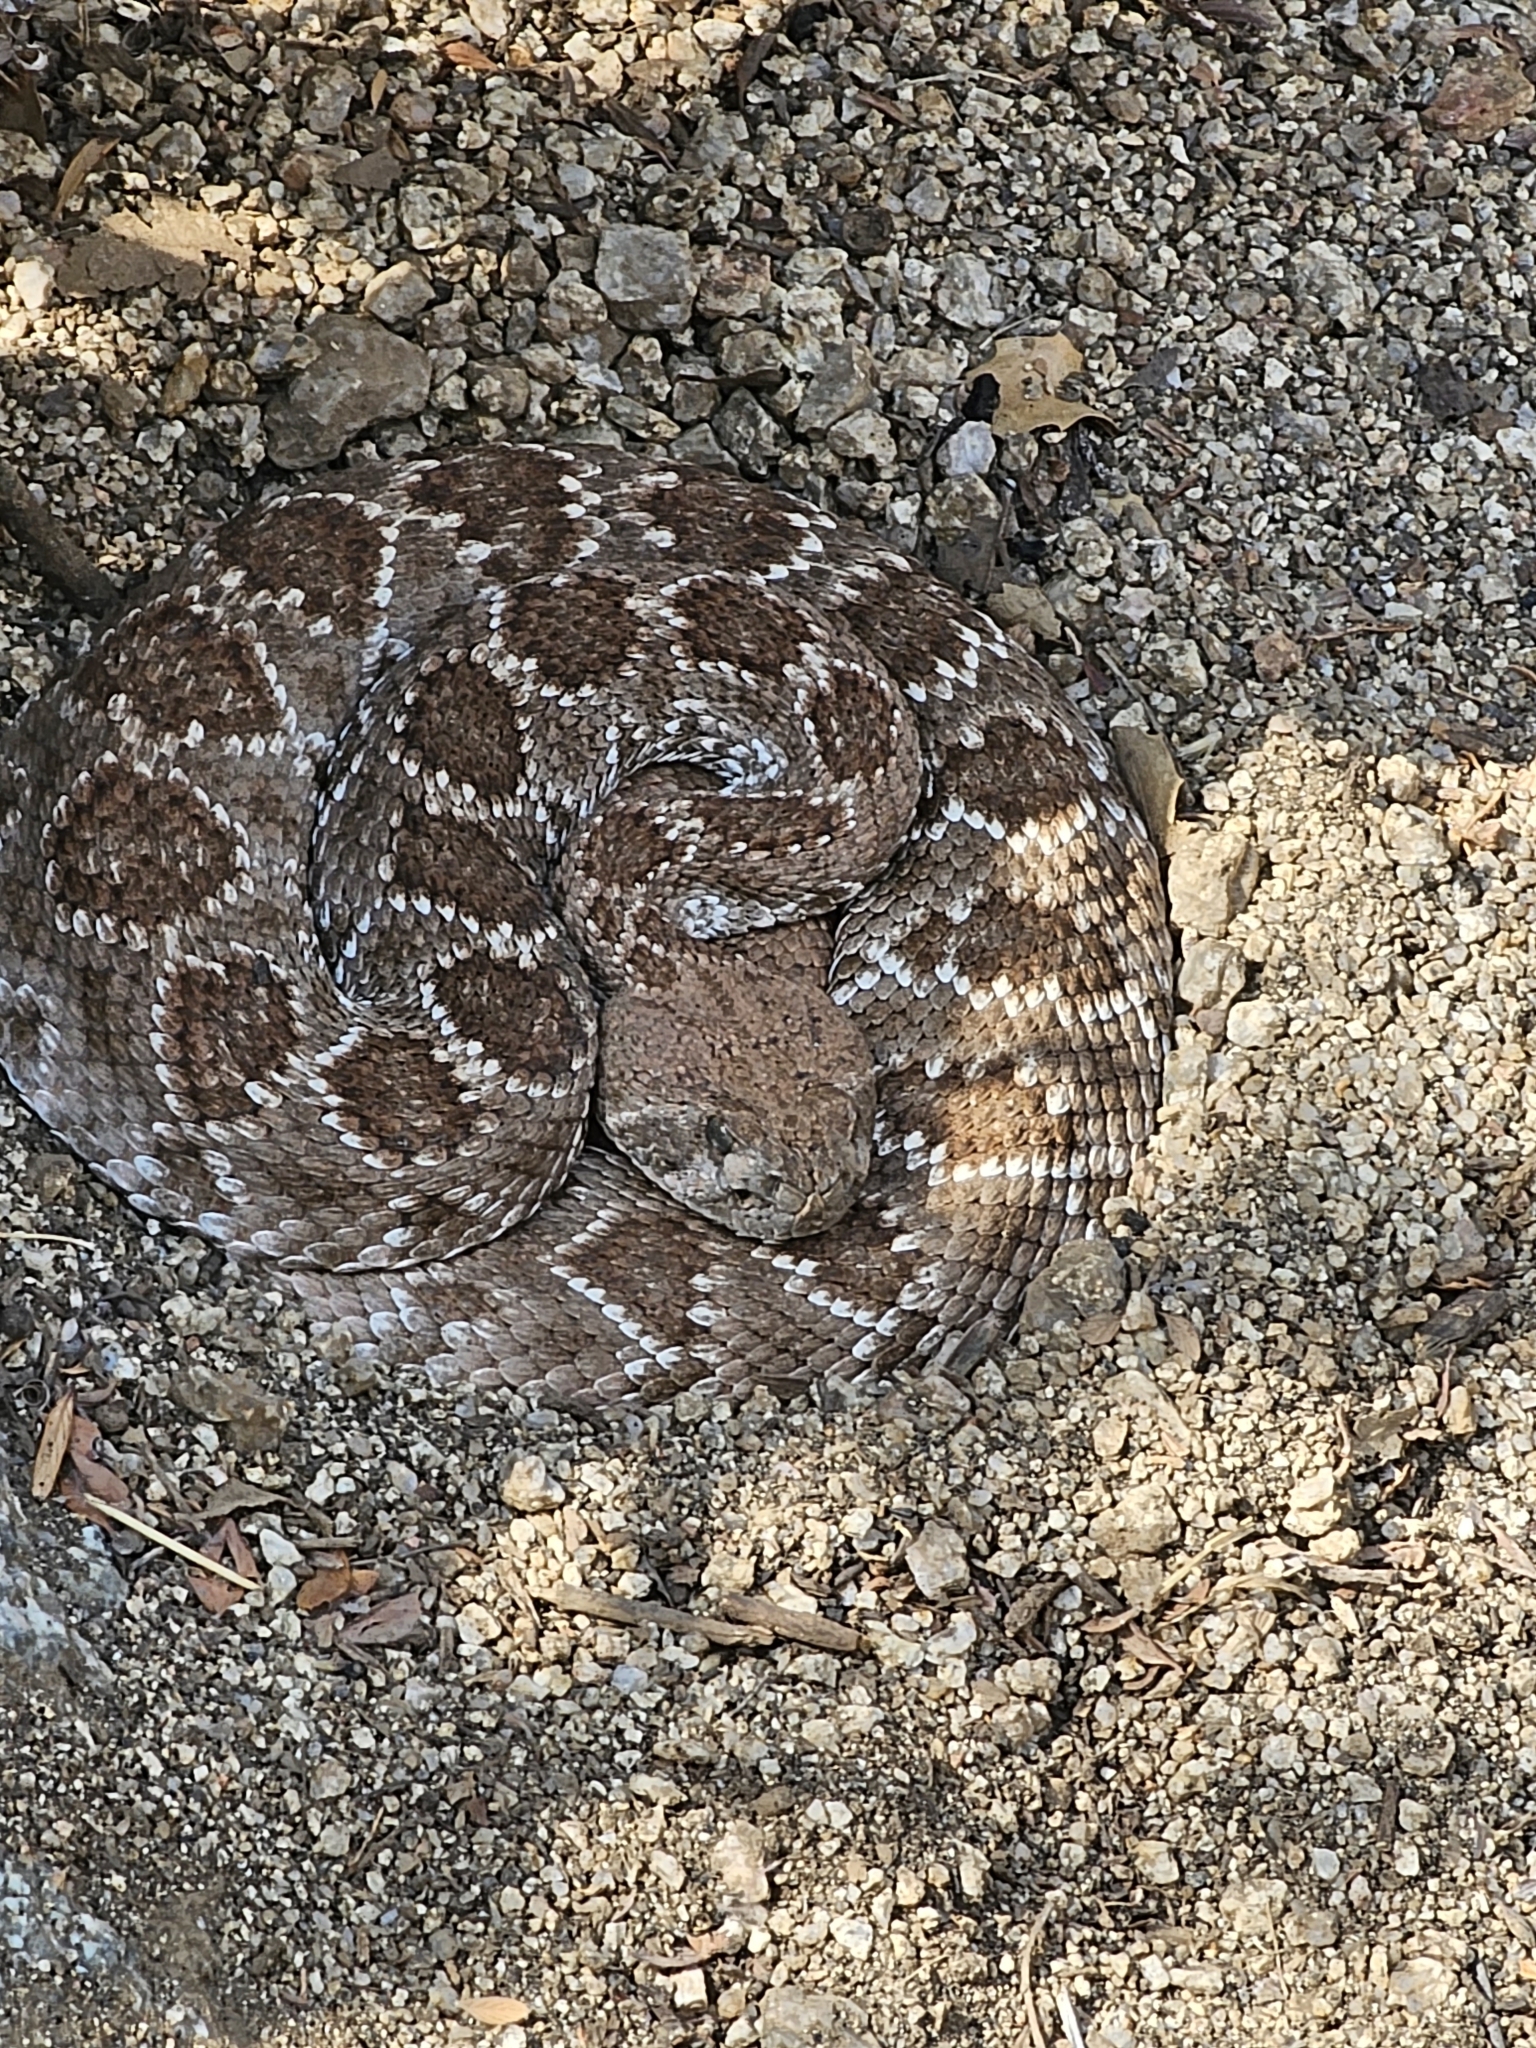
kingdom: Animalia
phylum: Chordata
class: Squamata
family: Viperidae
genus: Crotalus
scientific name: Crotalus atrox
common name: Western diamond-backed rattlesnake
